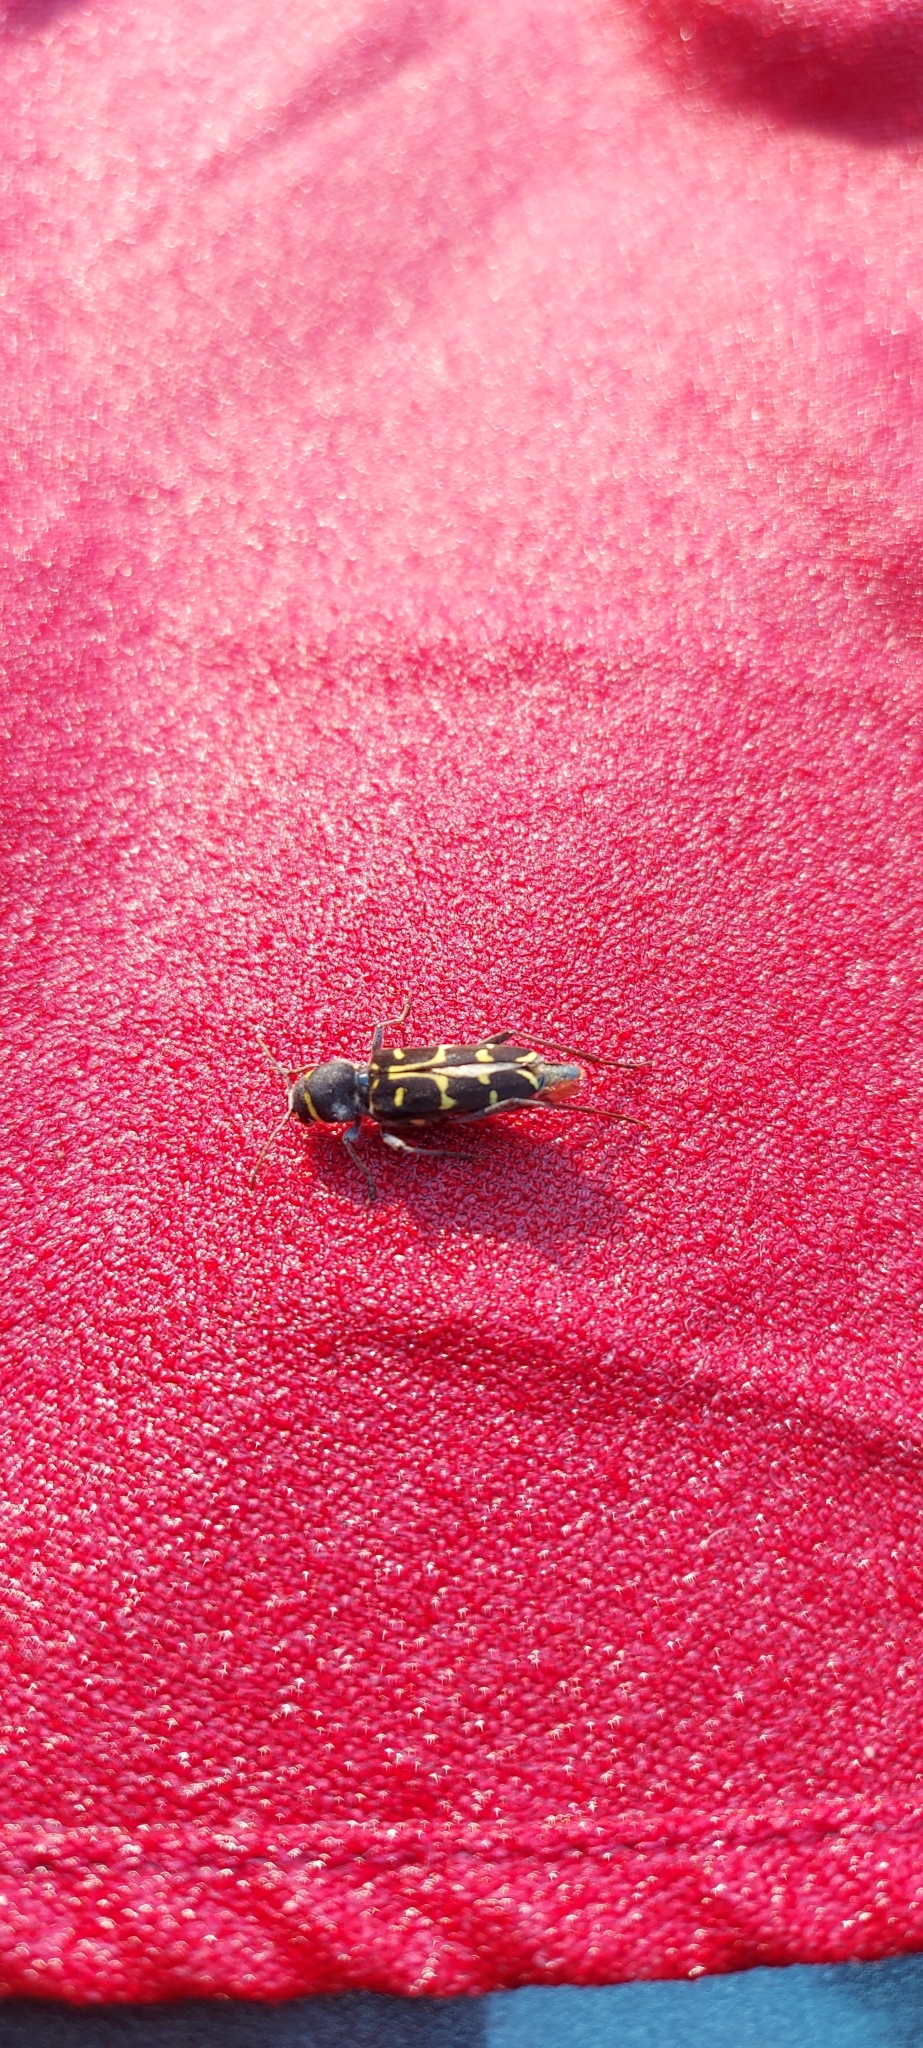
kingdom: Animalia
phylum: Arthropoda
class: Insecta
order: Coleoptera
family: Cerambycidae
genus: Xylotrechus
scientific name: Xylotrechus undulatus
